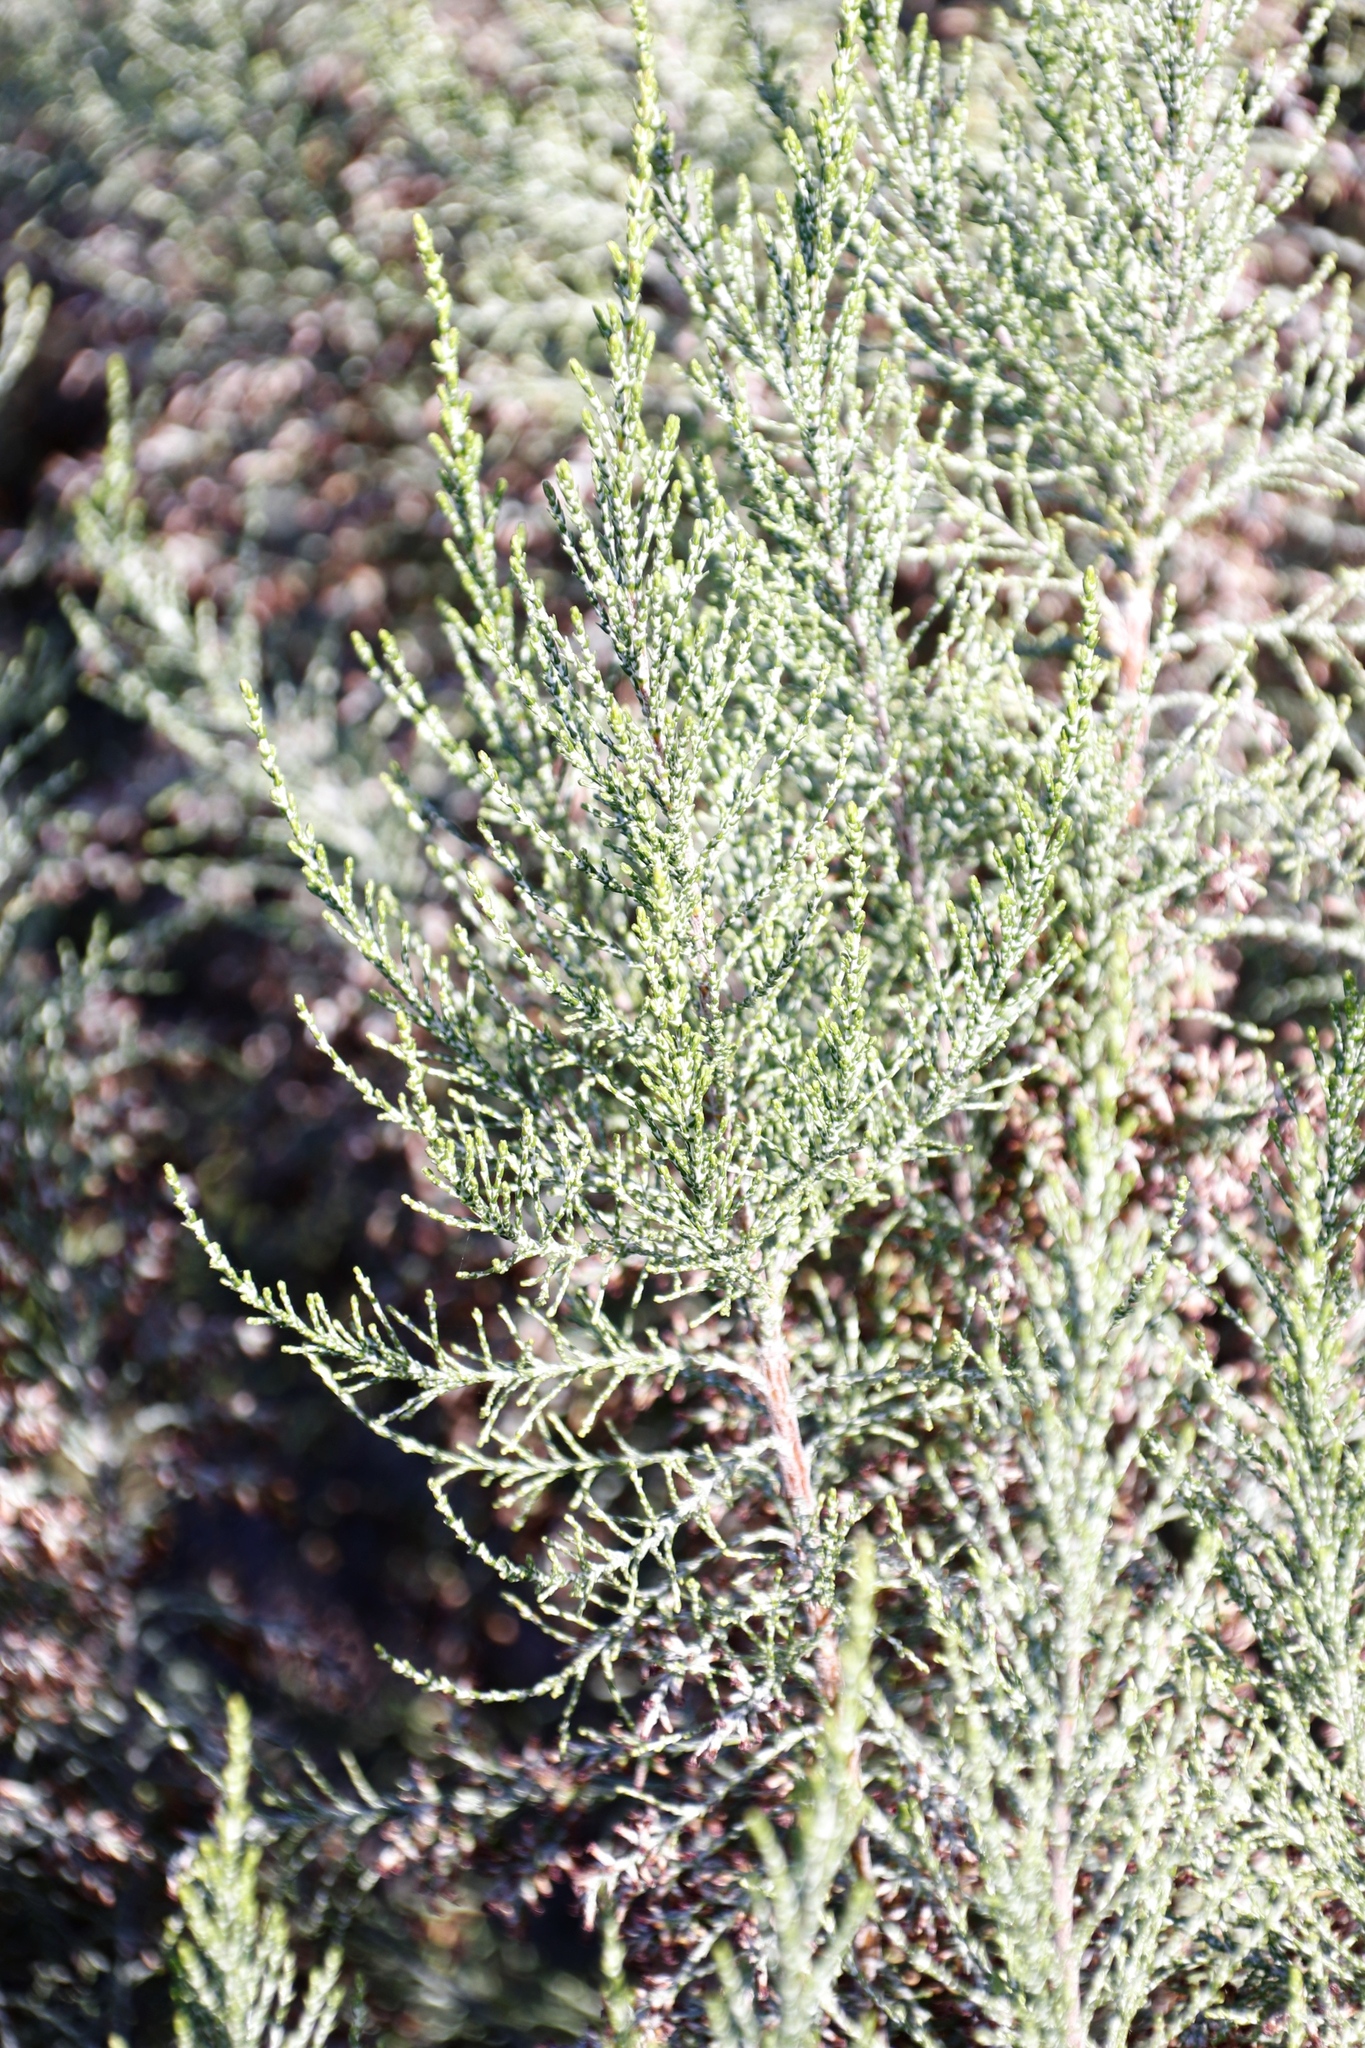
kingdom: Plantae
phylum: Tracheophyta
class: Magnoliopsida
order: Malvales
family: Thymelaeaceae
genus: Passerina
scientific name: Passerina corymbosa
